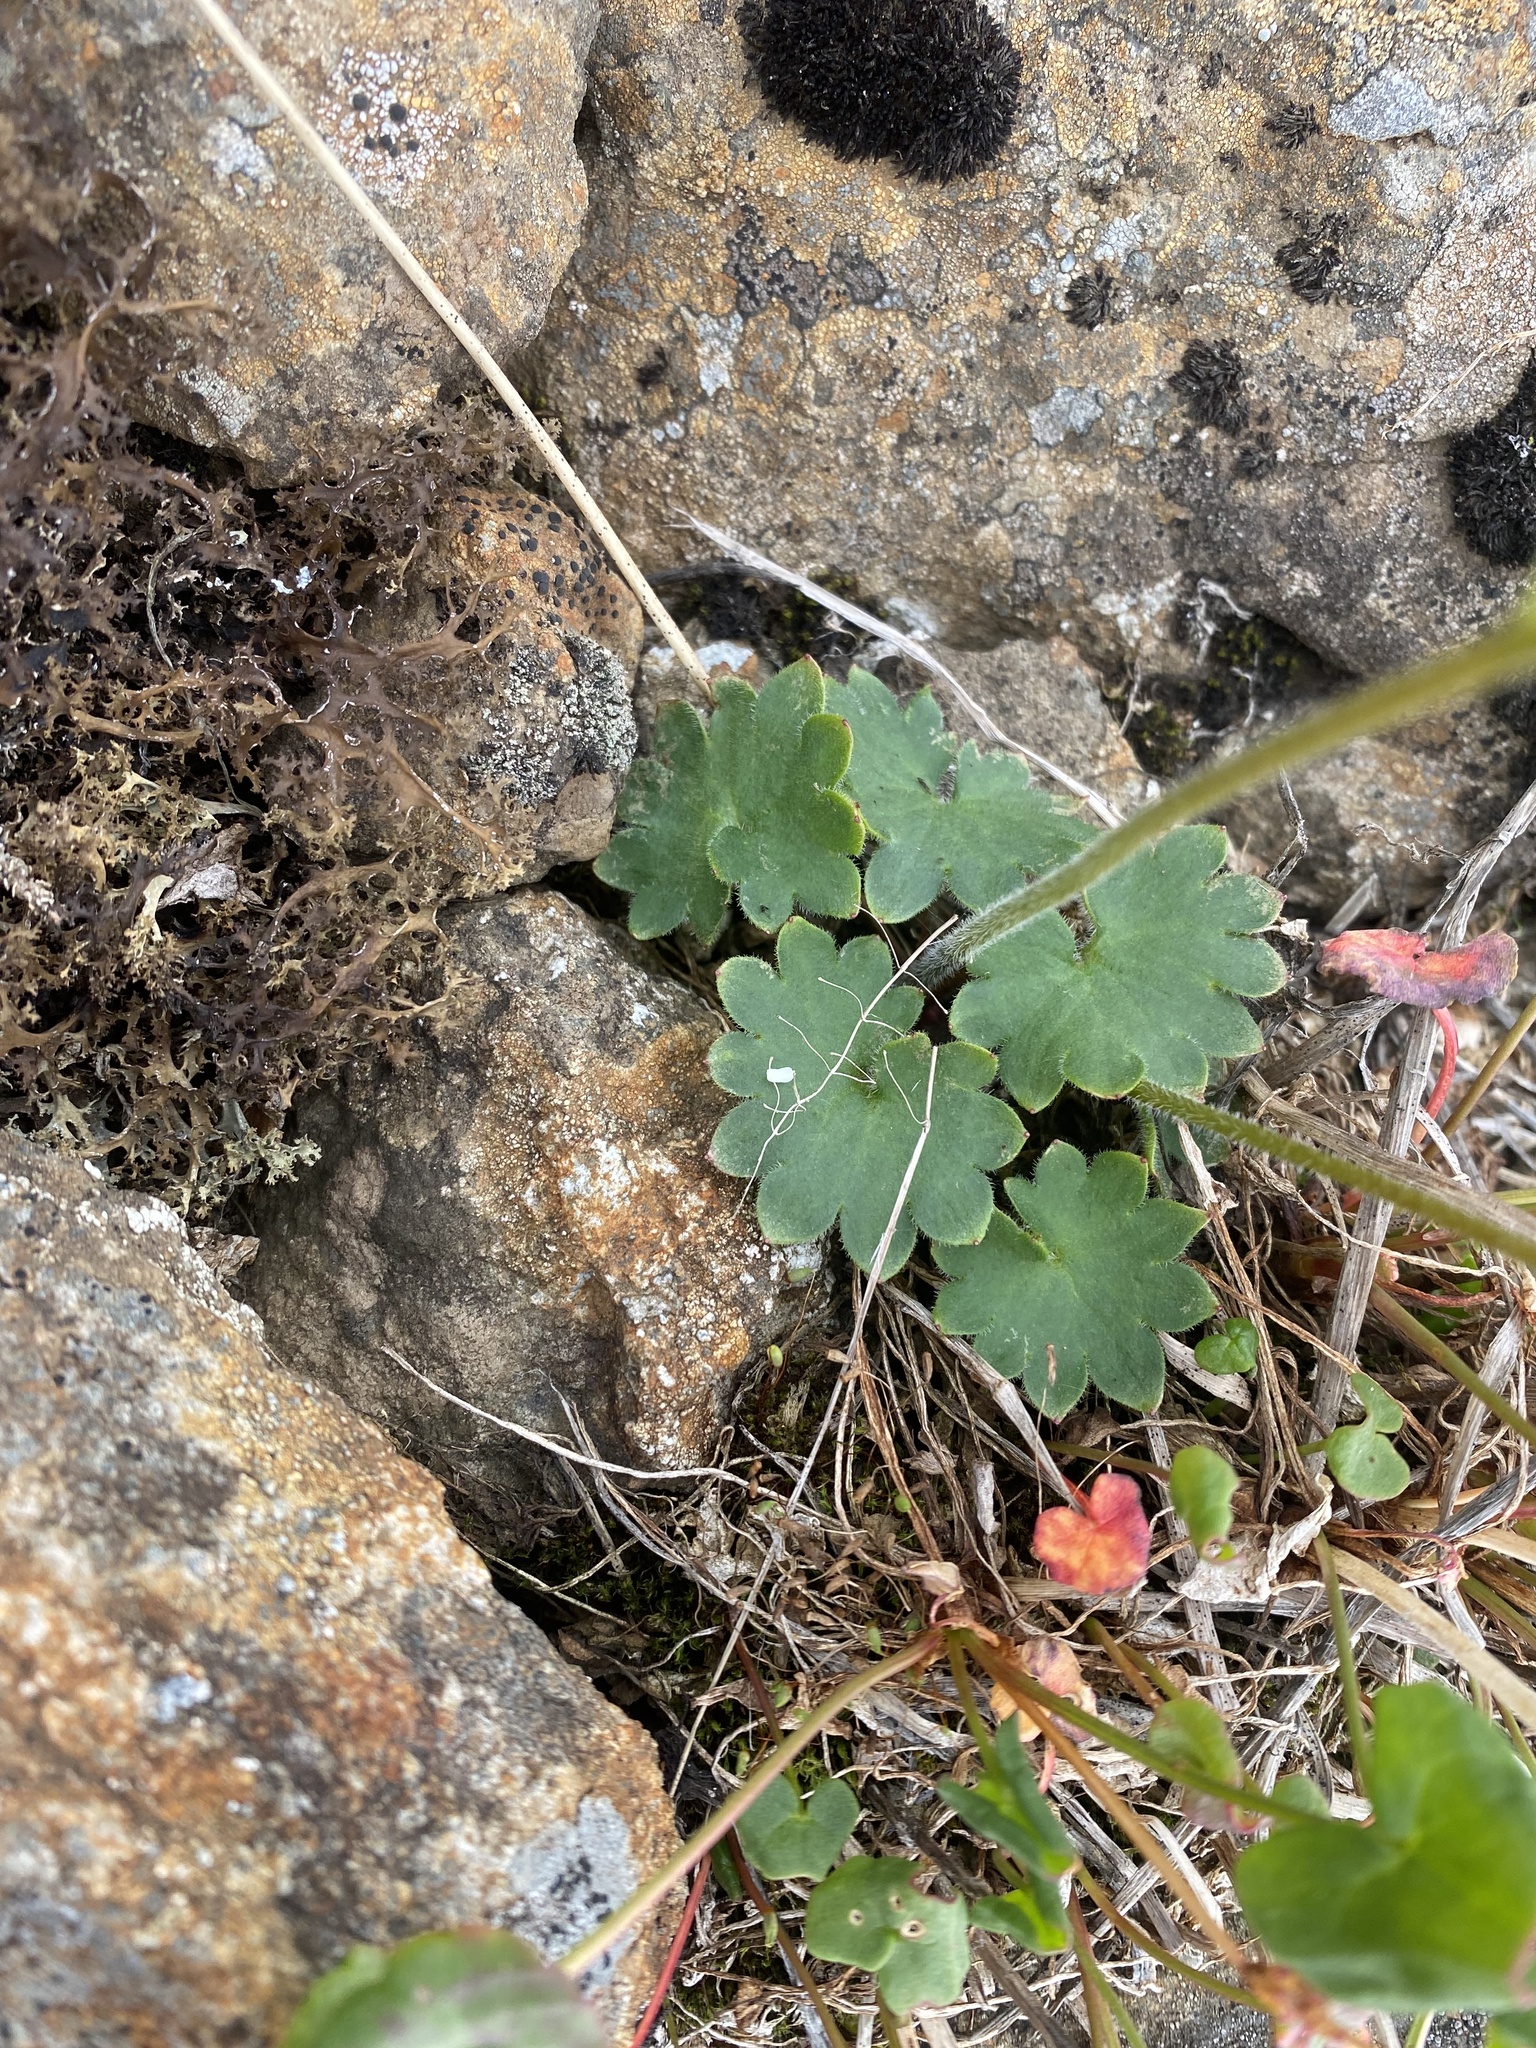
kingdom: Plantae
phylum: Tracheophyta
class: Magnoliopsida
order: Saxifragales
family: Saxifragaceae
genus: Micranthes
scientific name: Micranthes nelsoniana
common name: Nelson's saxifrage
